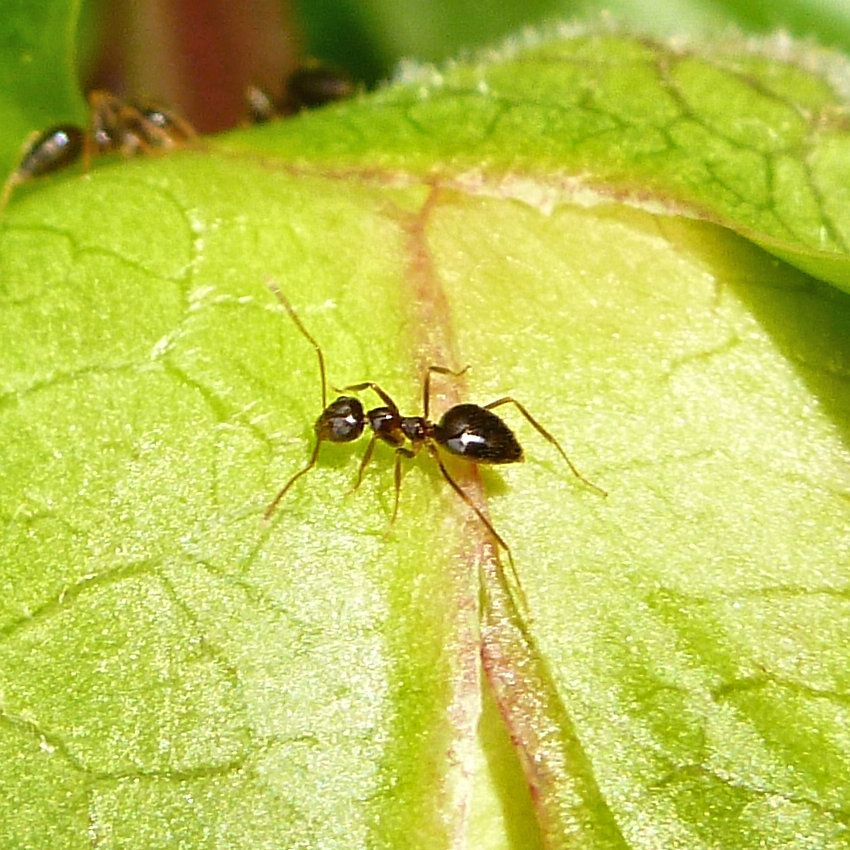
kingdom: Animalia
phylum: Arthropoda
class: Insecta
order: Hymenoptera
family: Formicidae
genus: Prenolepis
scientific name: Prenolepis imparis
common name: Small honey ant
